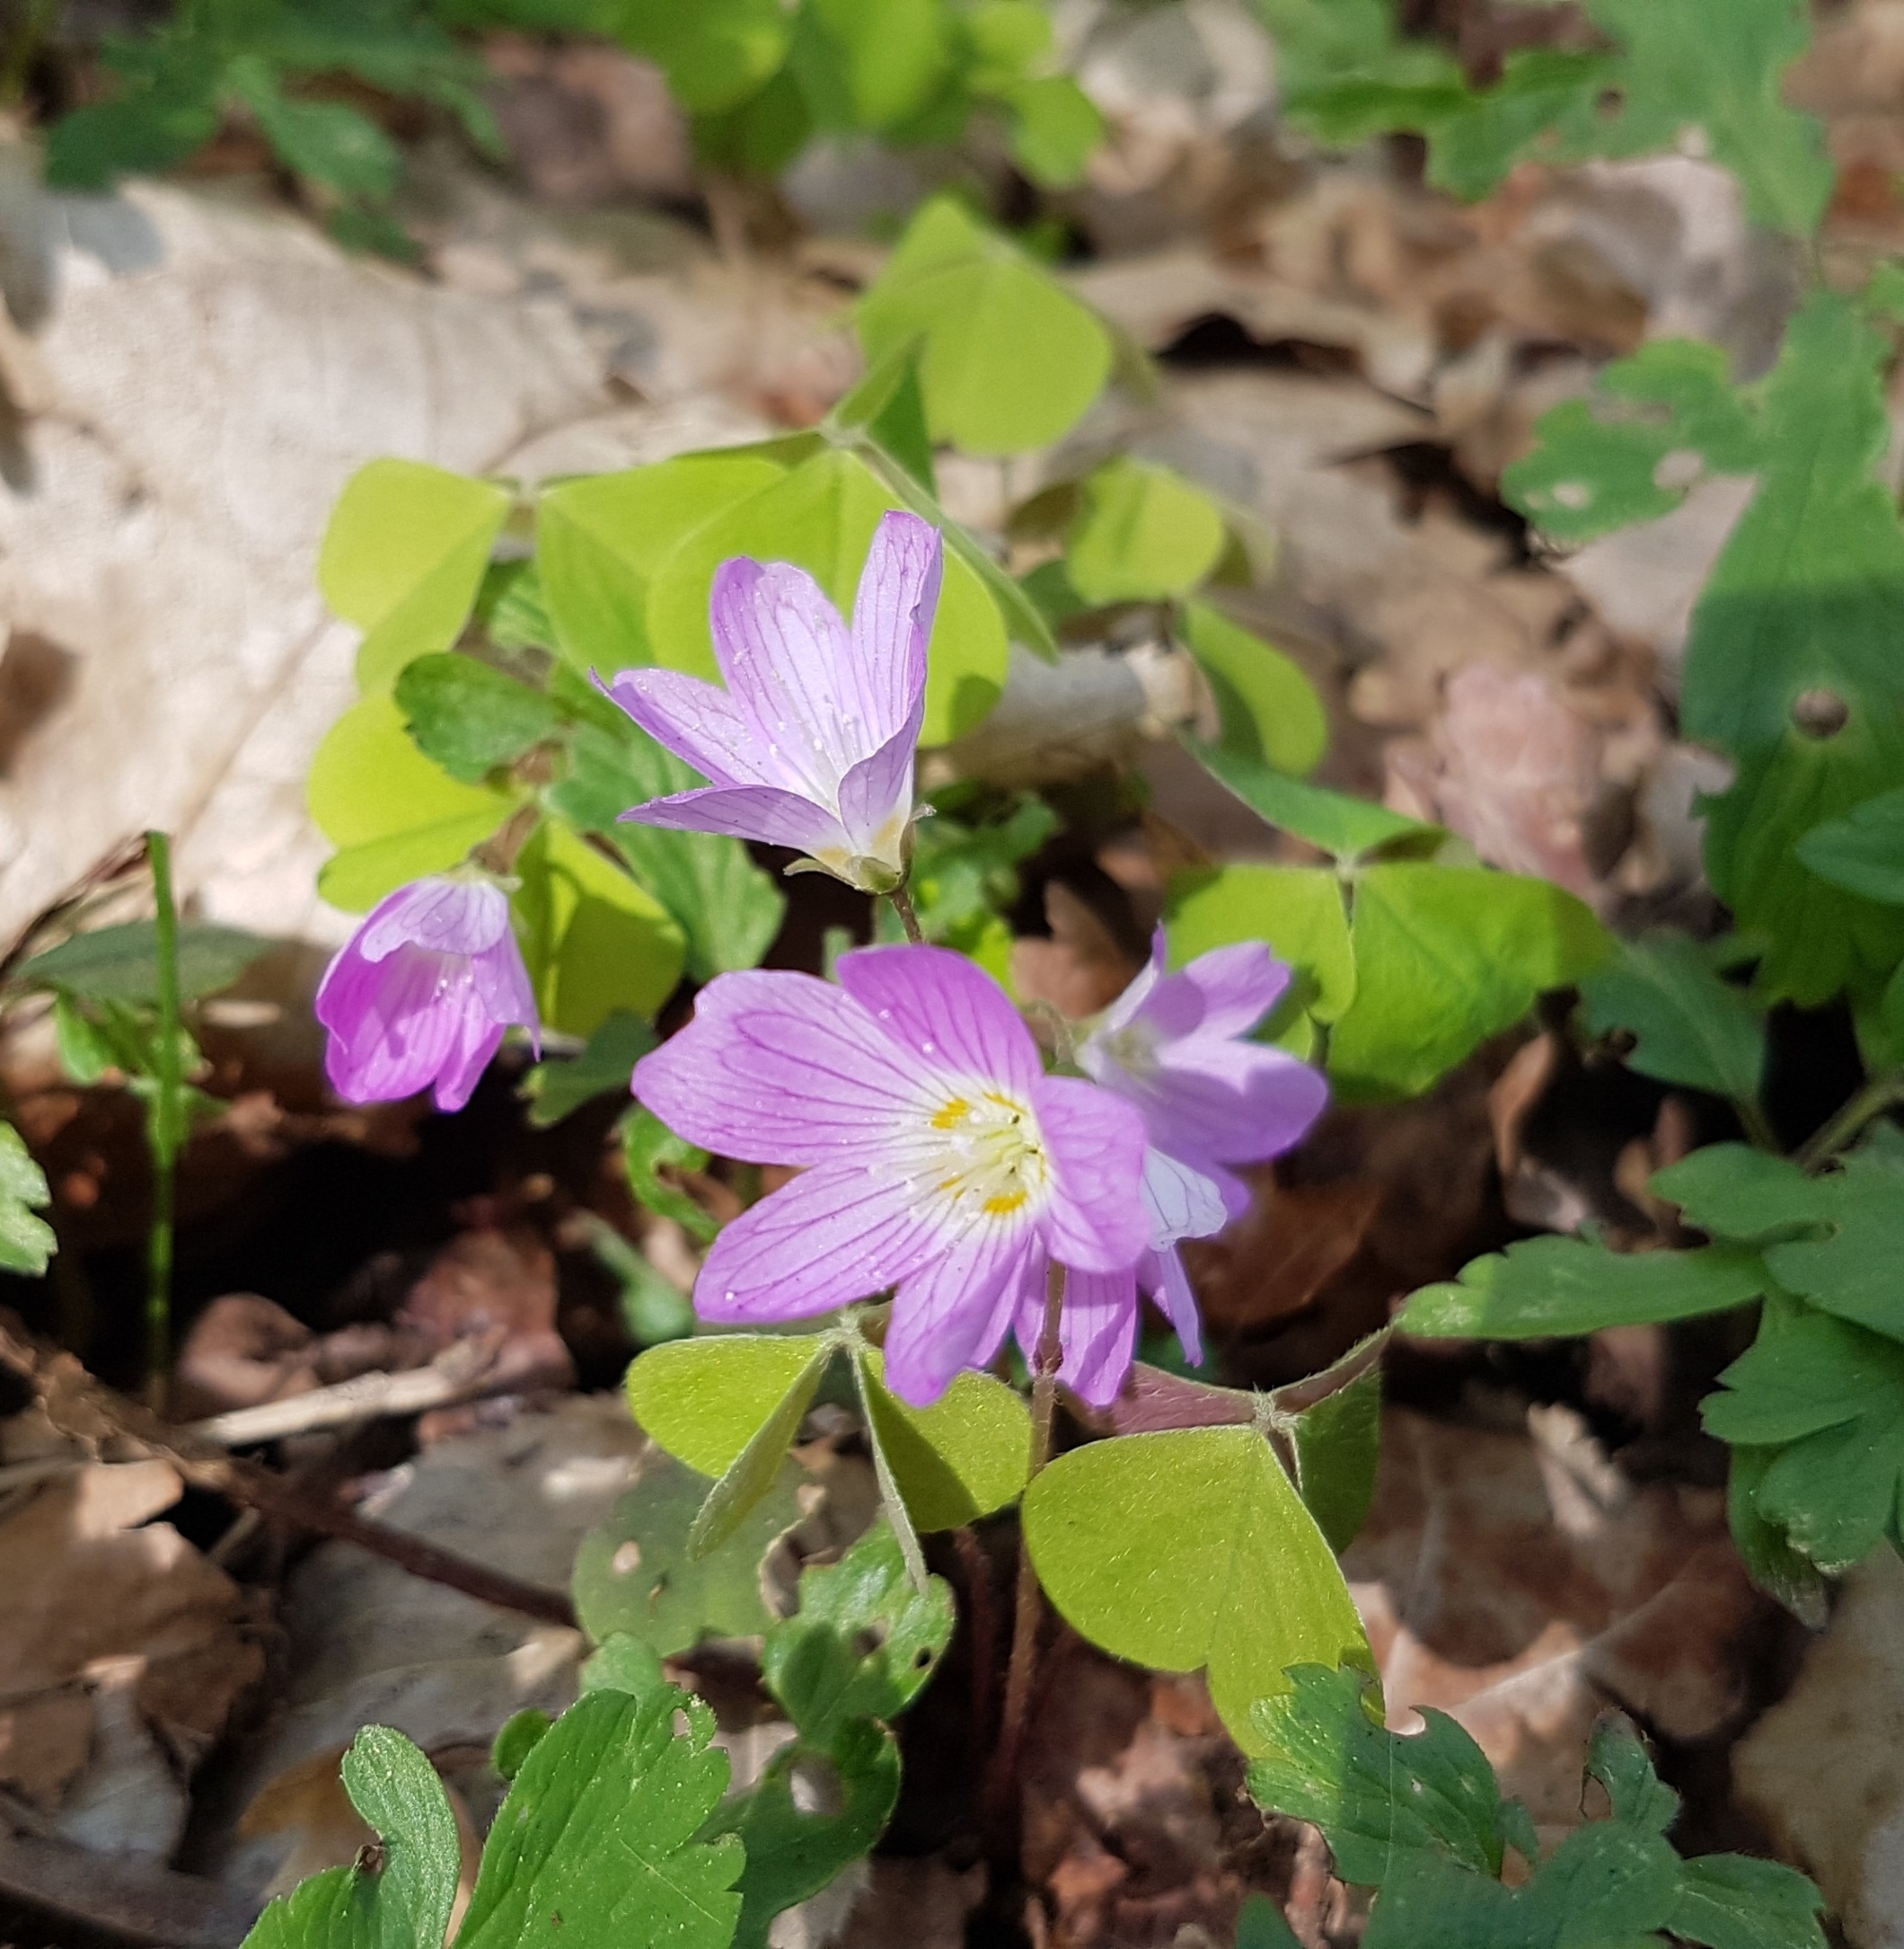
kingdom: Plantae
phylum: Tracheophyta
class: Magnoliopsida
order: Oxalidales
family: Oxalidaceae
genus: Oxalis
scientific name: Oxalis acetosella
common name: Wood-sorrel
